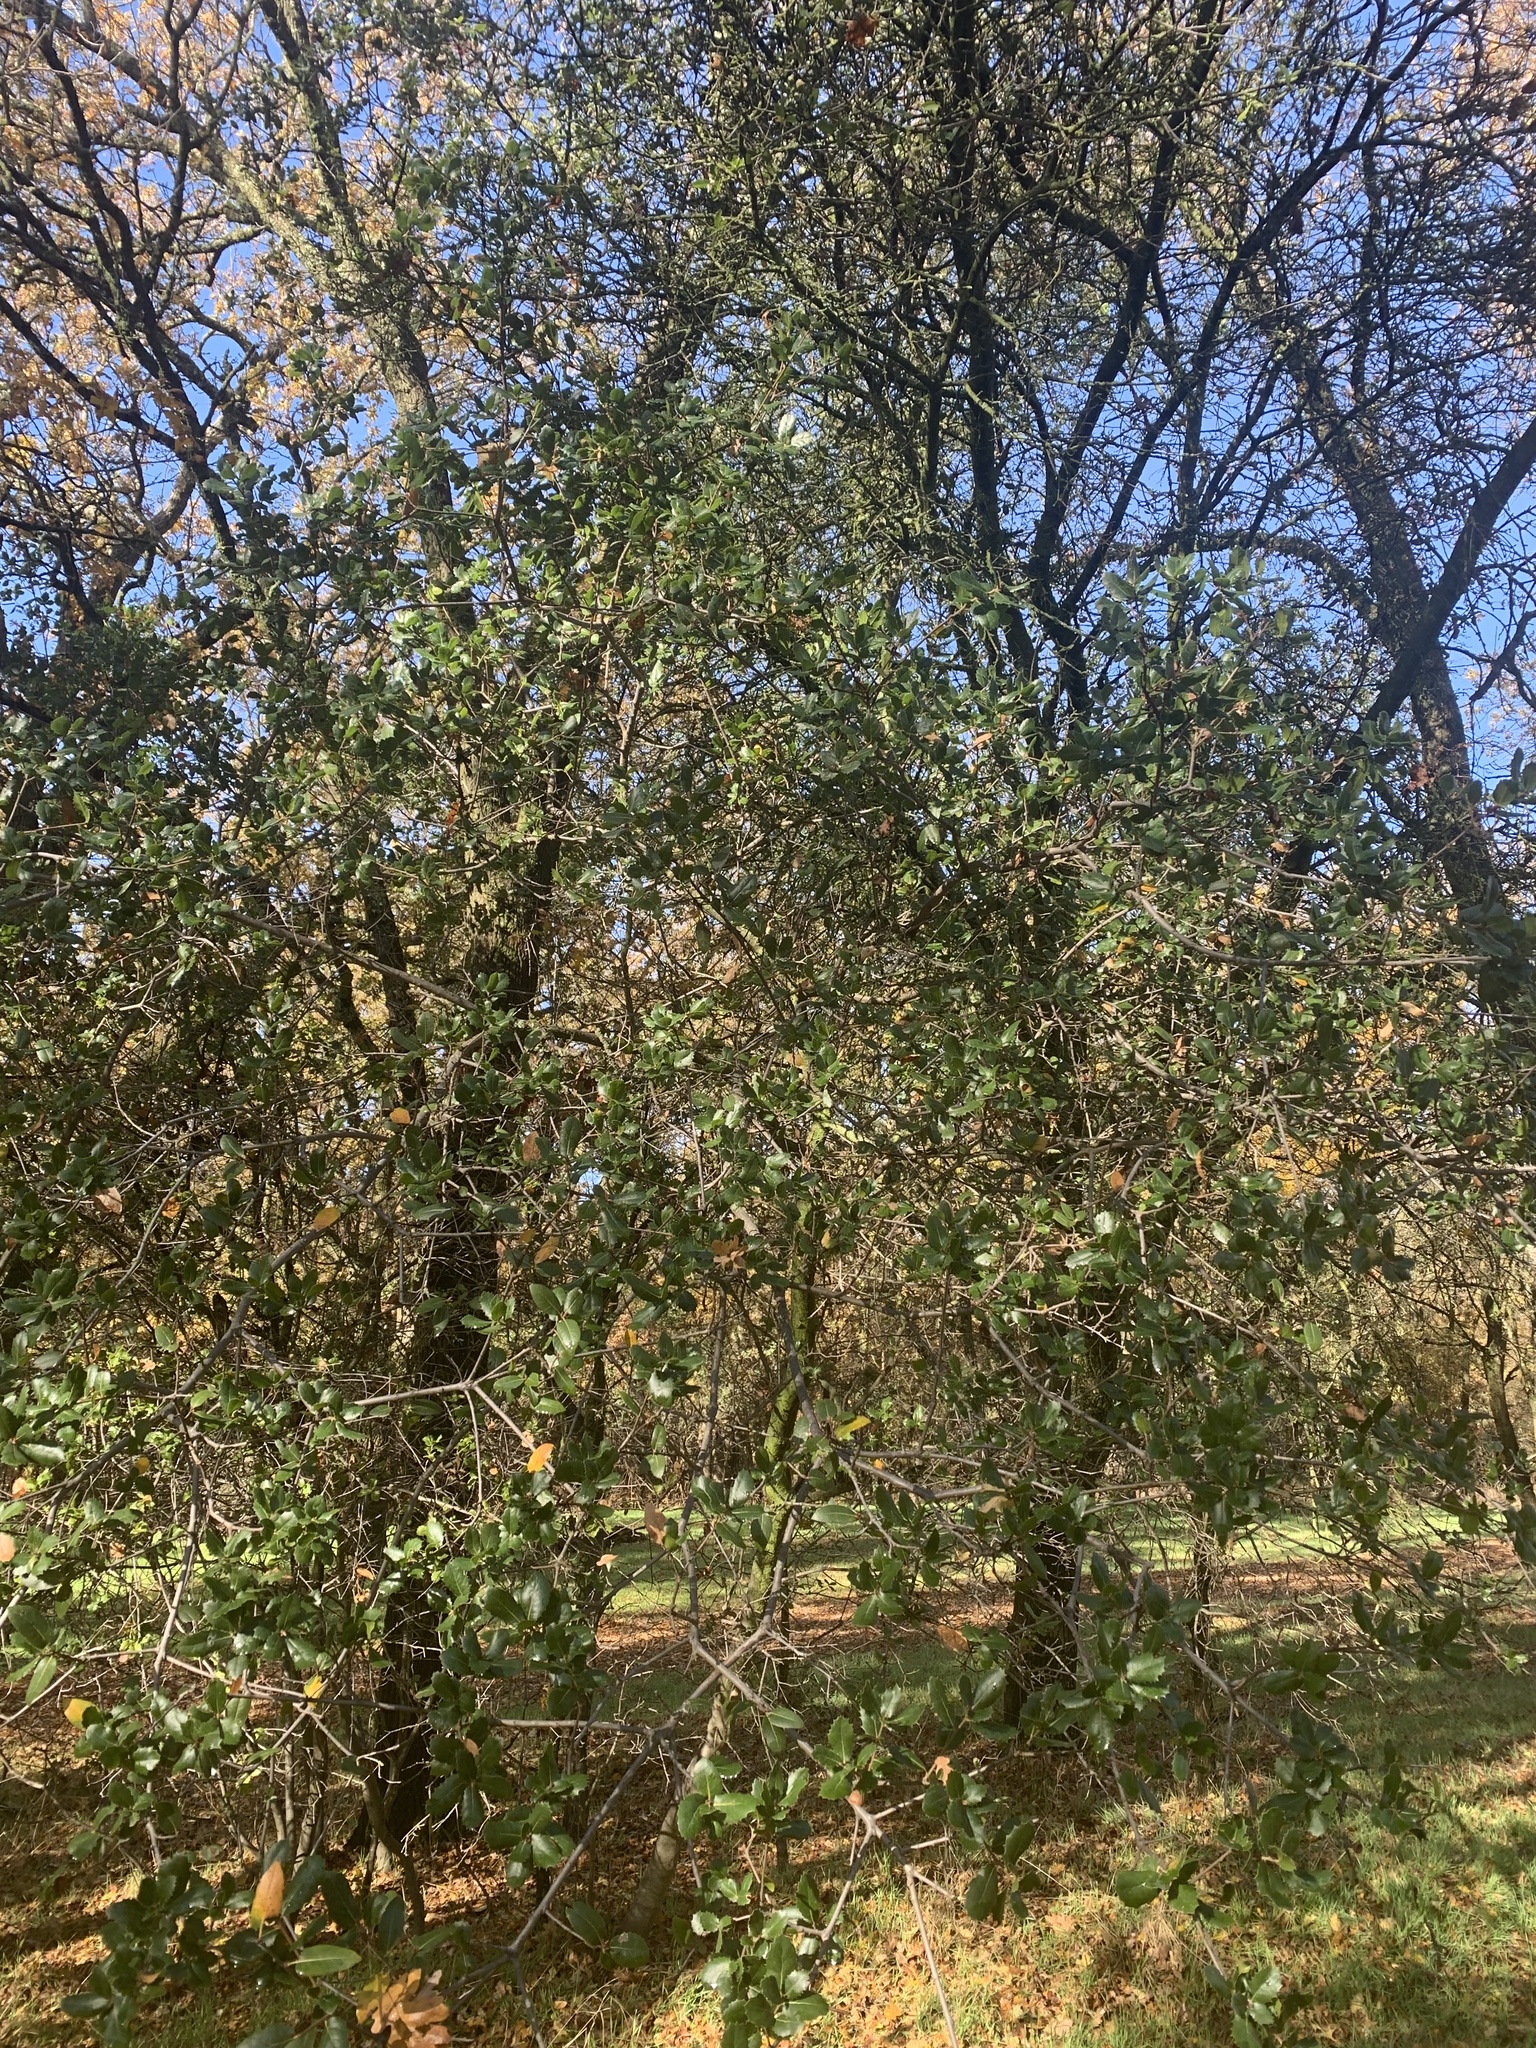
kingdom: Plantae
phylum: Tracheophyta
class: Magnoliopsida
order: Fagales
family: Fagaceae
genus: Quercus
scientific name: Quercus wislizeni
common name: Interior live oak
